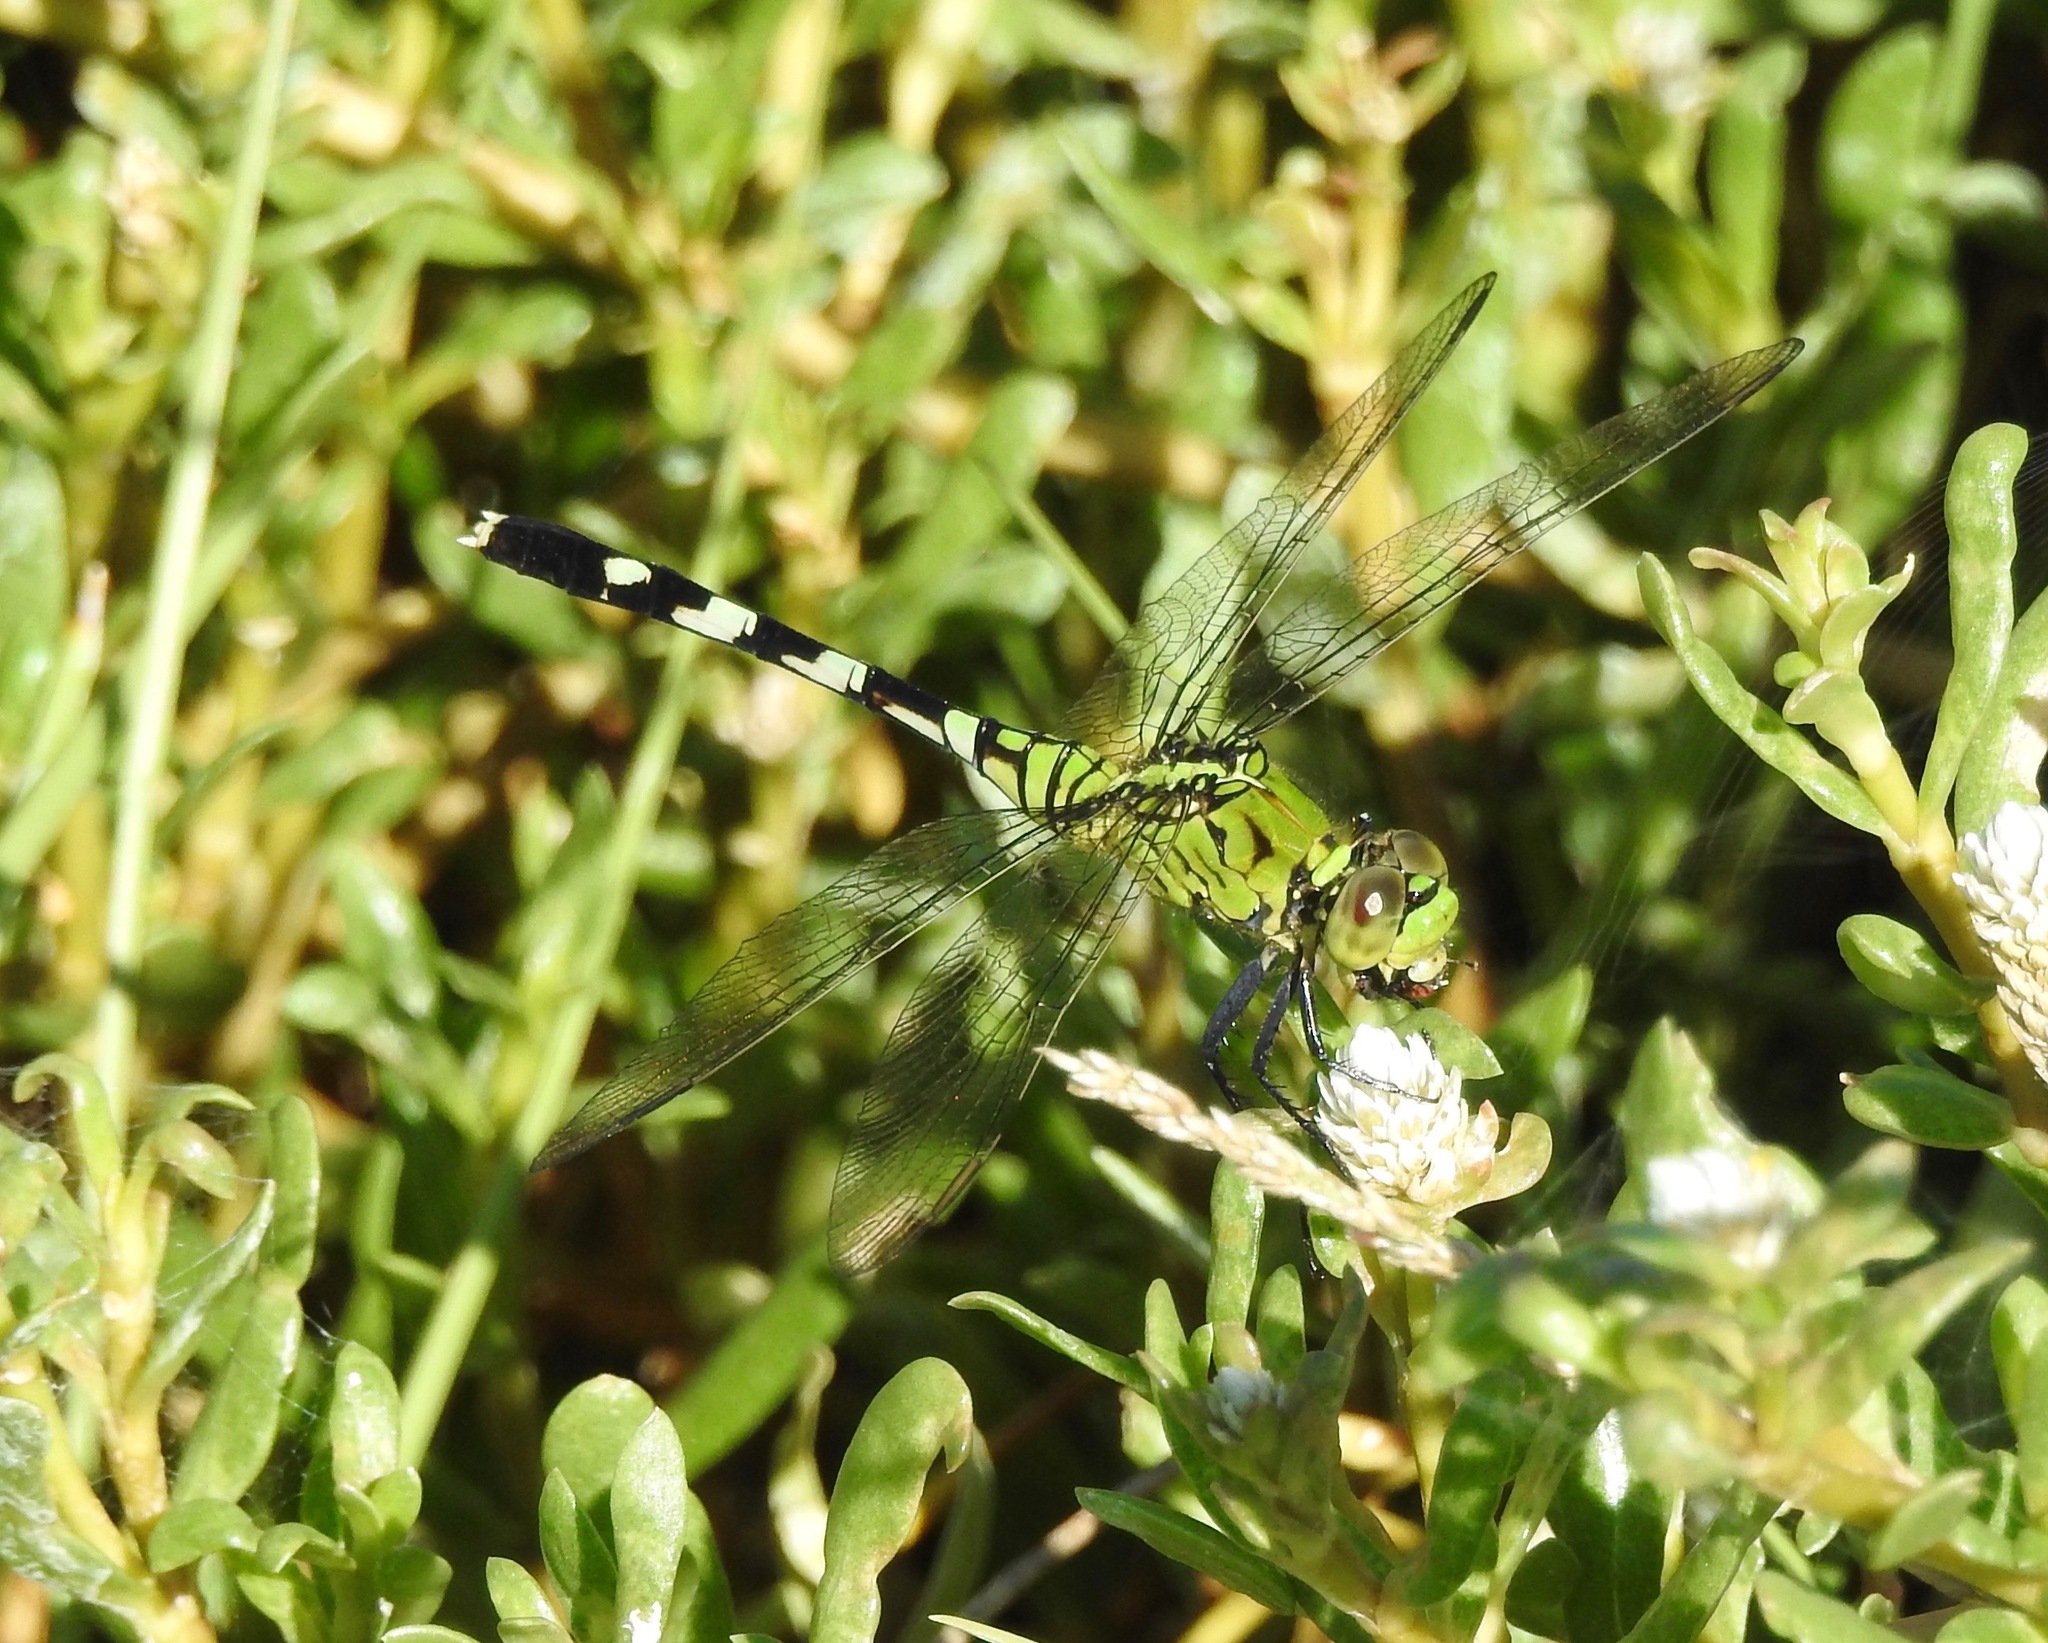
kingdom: Animalia
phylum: Arthropoda
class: Insecta
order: Odonata
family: Libellulidae
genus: Erythemis
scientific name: Erythemis simplicicollis
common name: Eastern pondhawk
